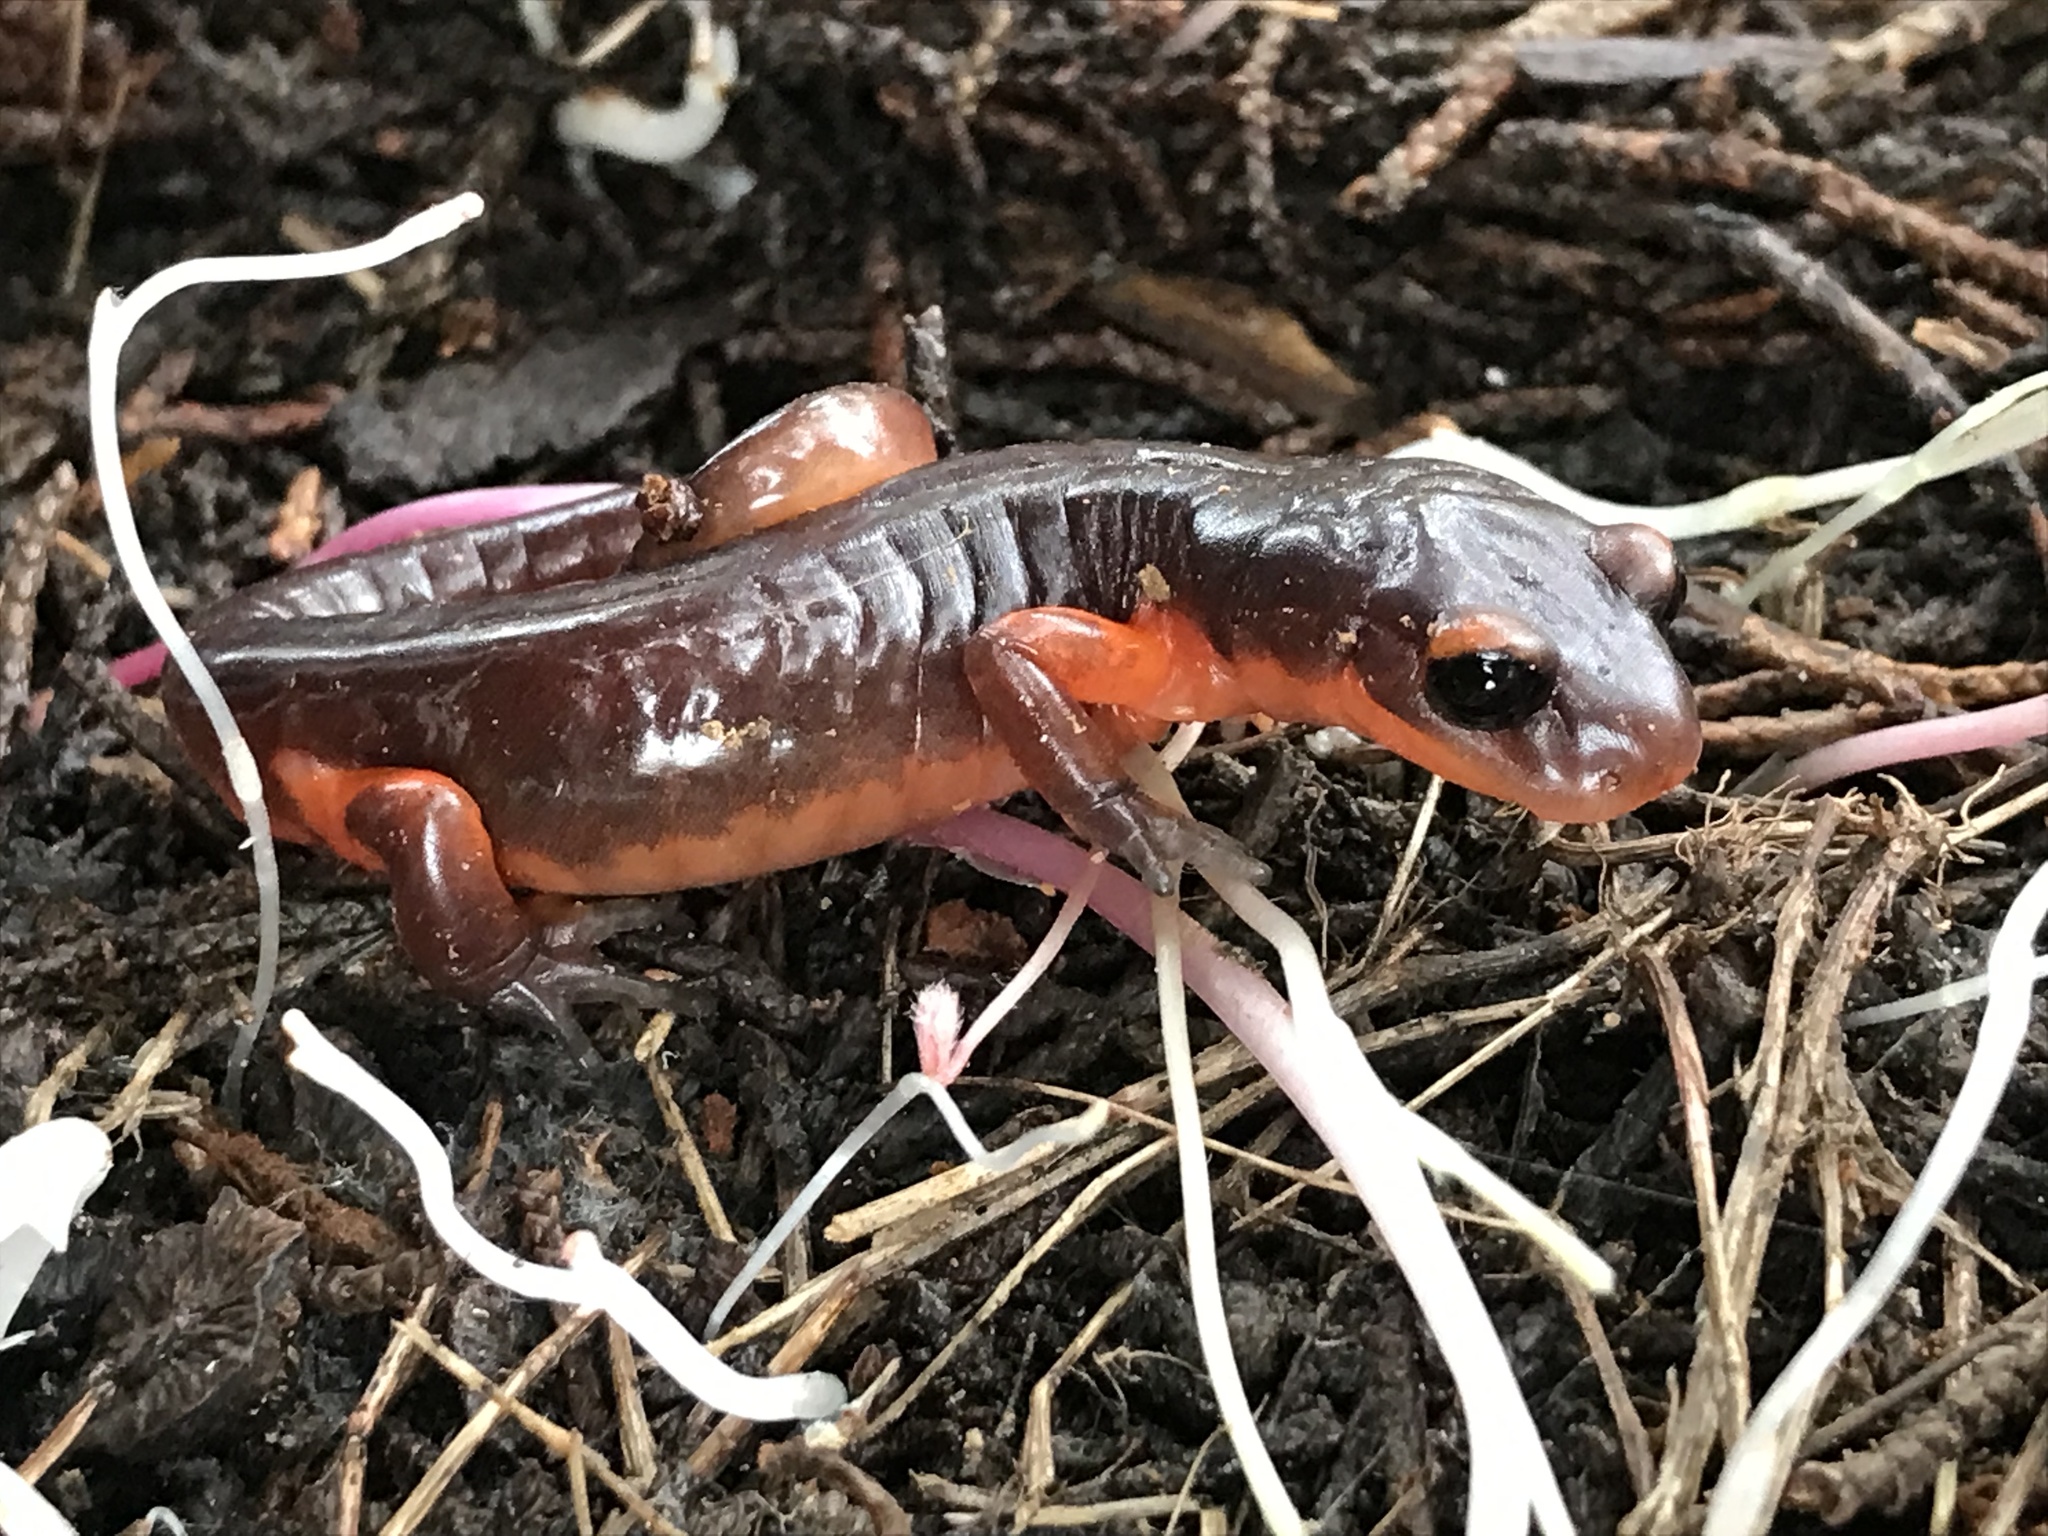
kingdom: Animalia
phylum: Chordata
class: Amphibia
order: Caudata
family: Plethodontidae
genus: Ensatina
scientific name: Ensatina eschscholtzii
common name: Ensatina
